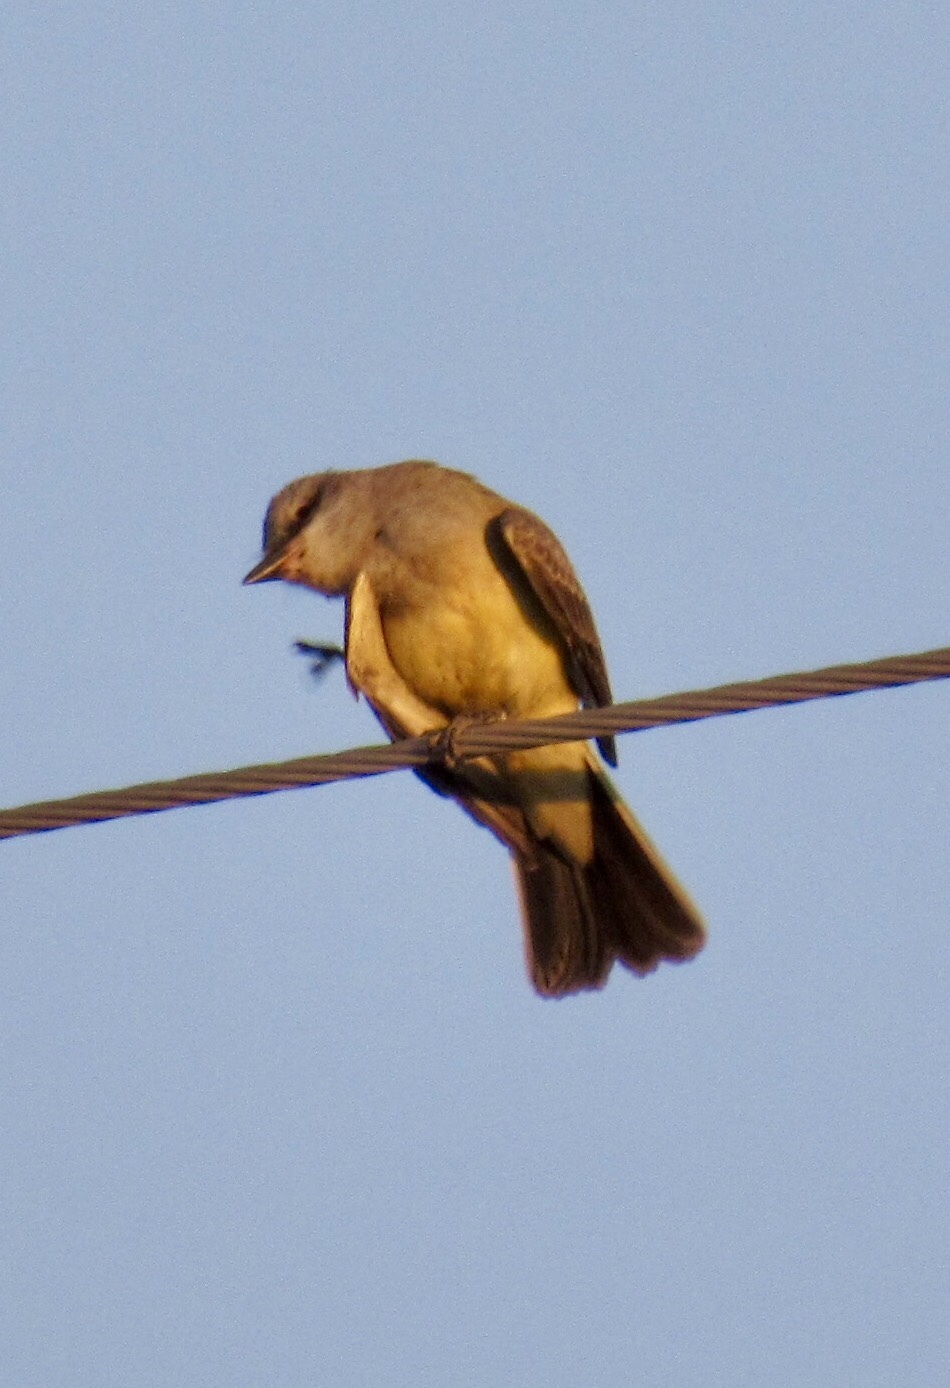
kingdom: Animalia
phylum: Chordata
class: Aves
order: Passeriformes
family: Tyrannidae
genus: Tyrannus
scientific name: Tyrannus verticalis
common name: Western kingbird
